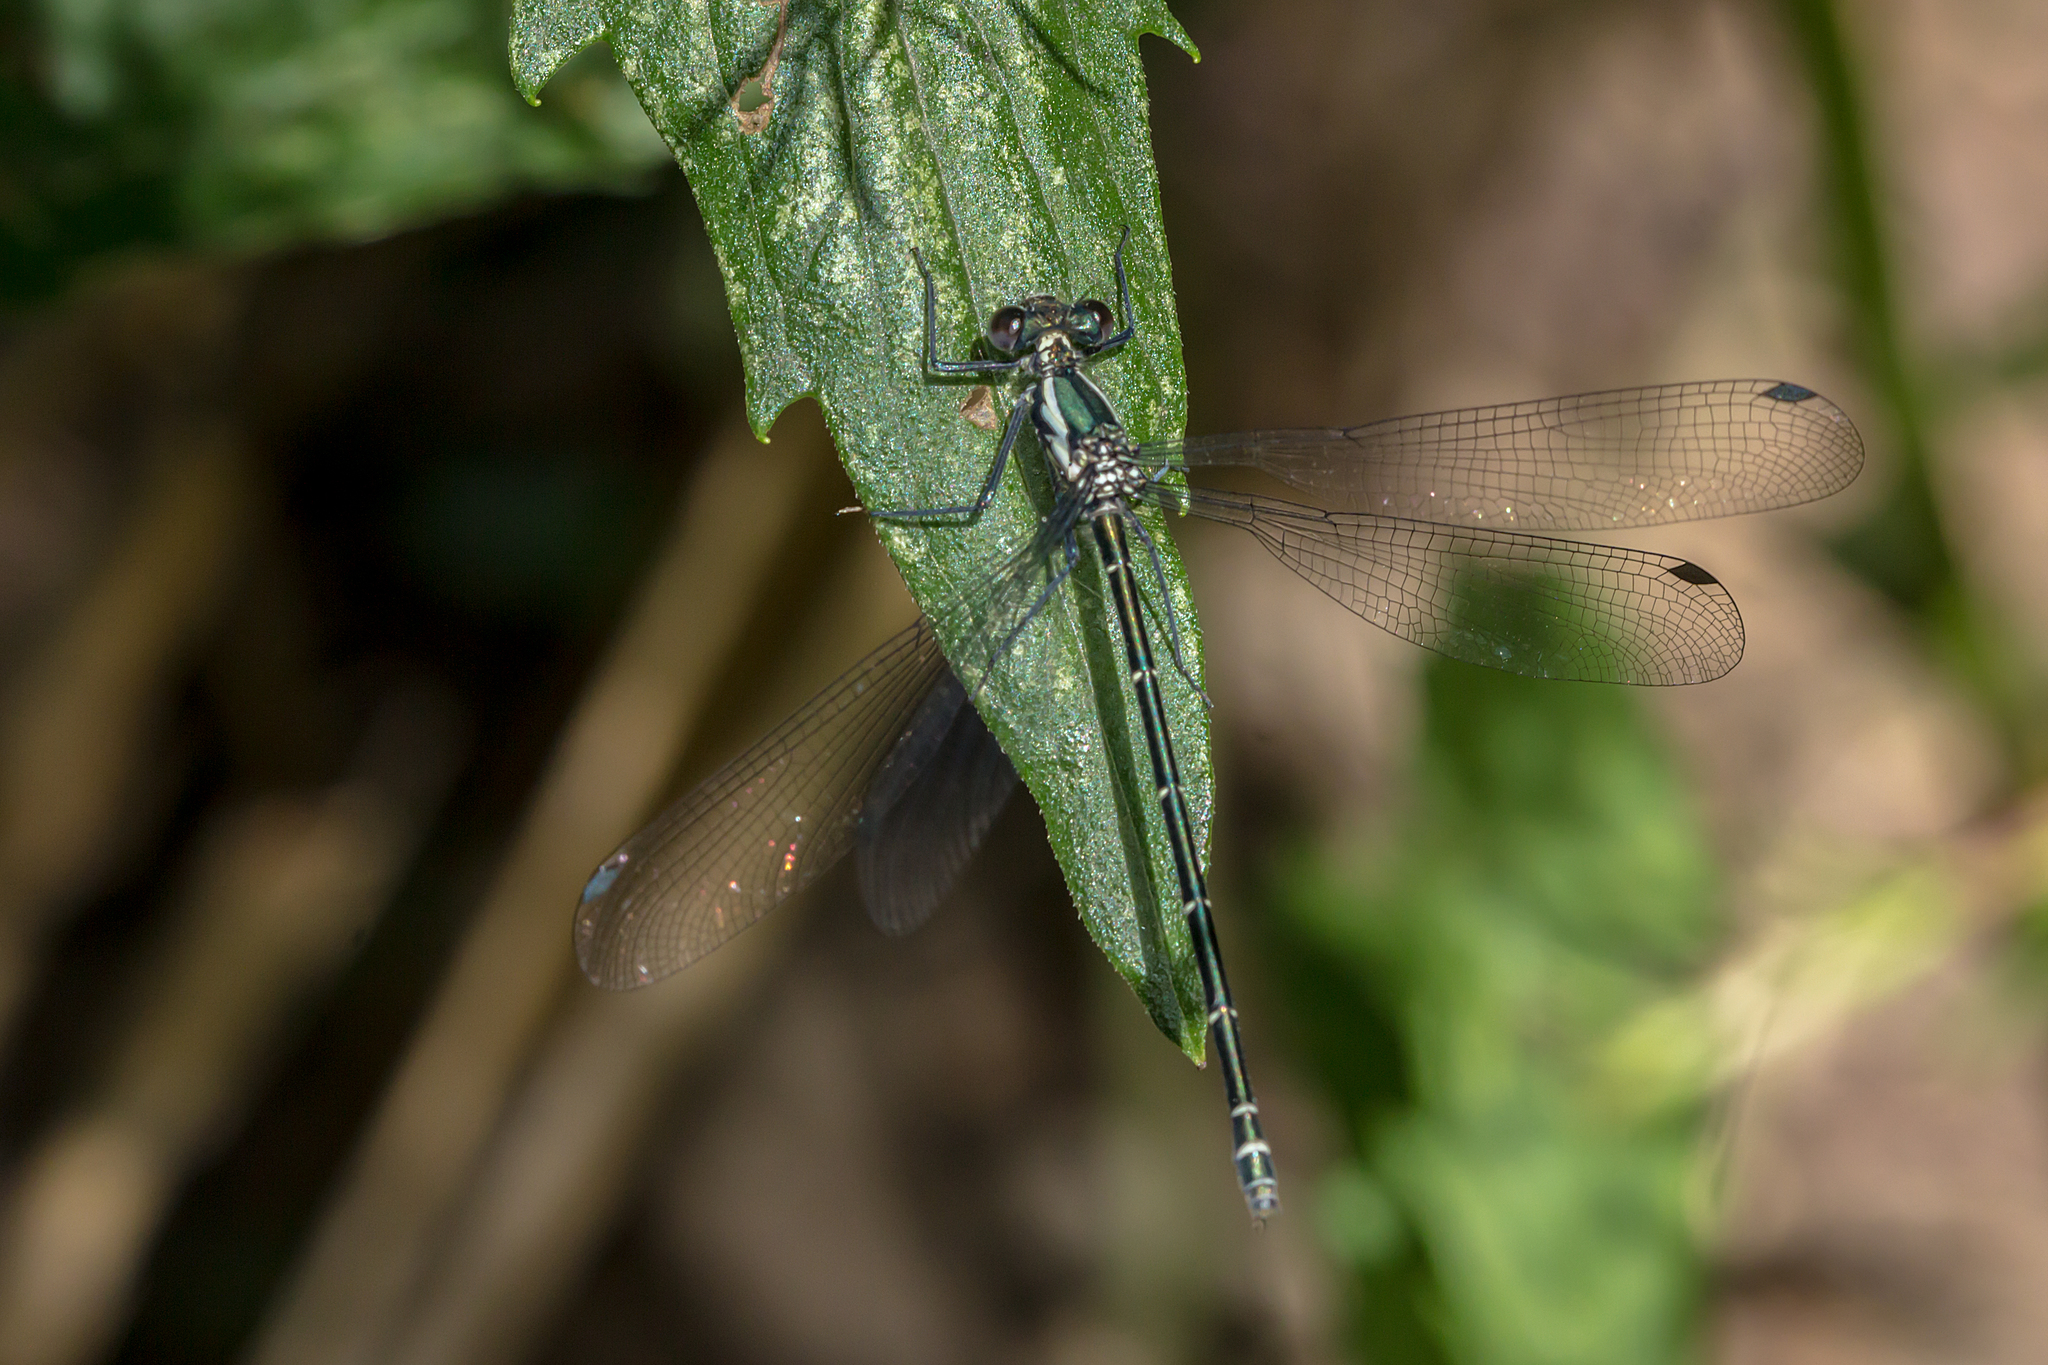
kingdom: Animalia
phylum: Arthropoda
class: Insecta
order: Odonata
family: Argiolestidae
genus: Austroargiolestes
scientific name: Austroargiolestes icteromelas
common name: Common flatwing
